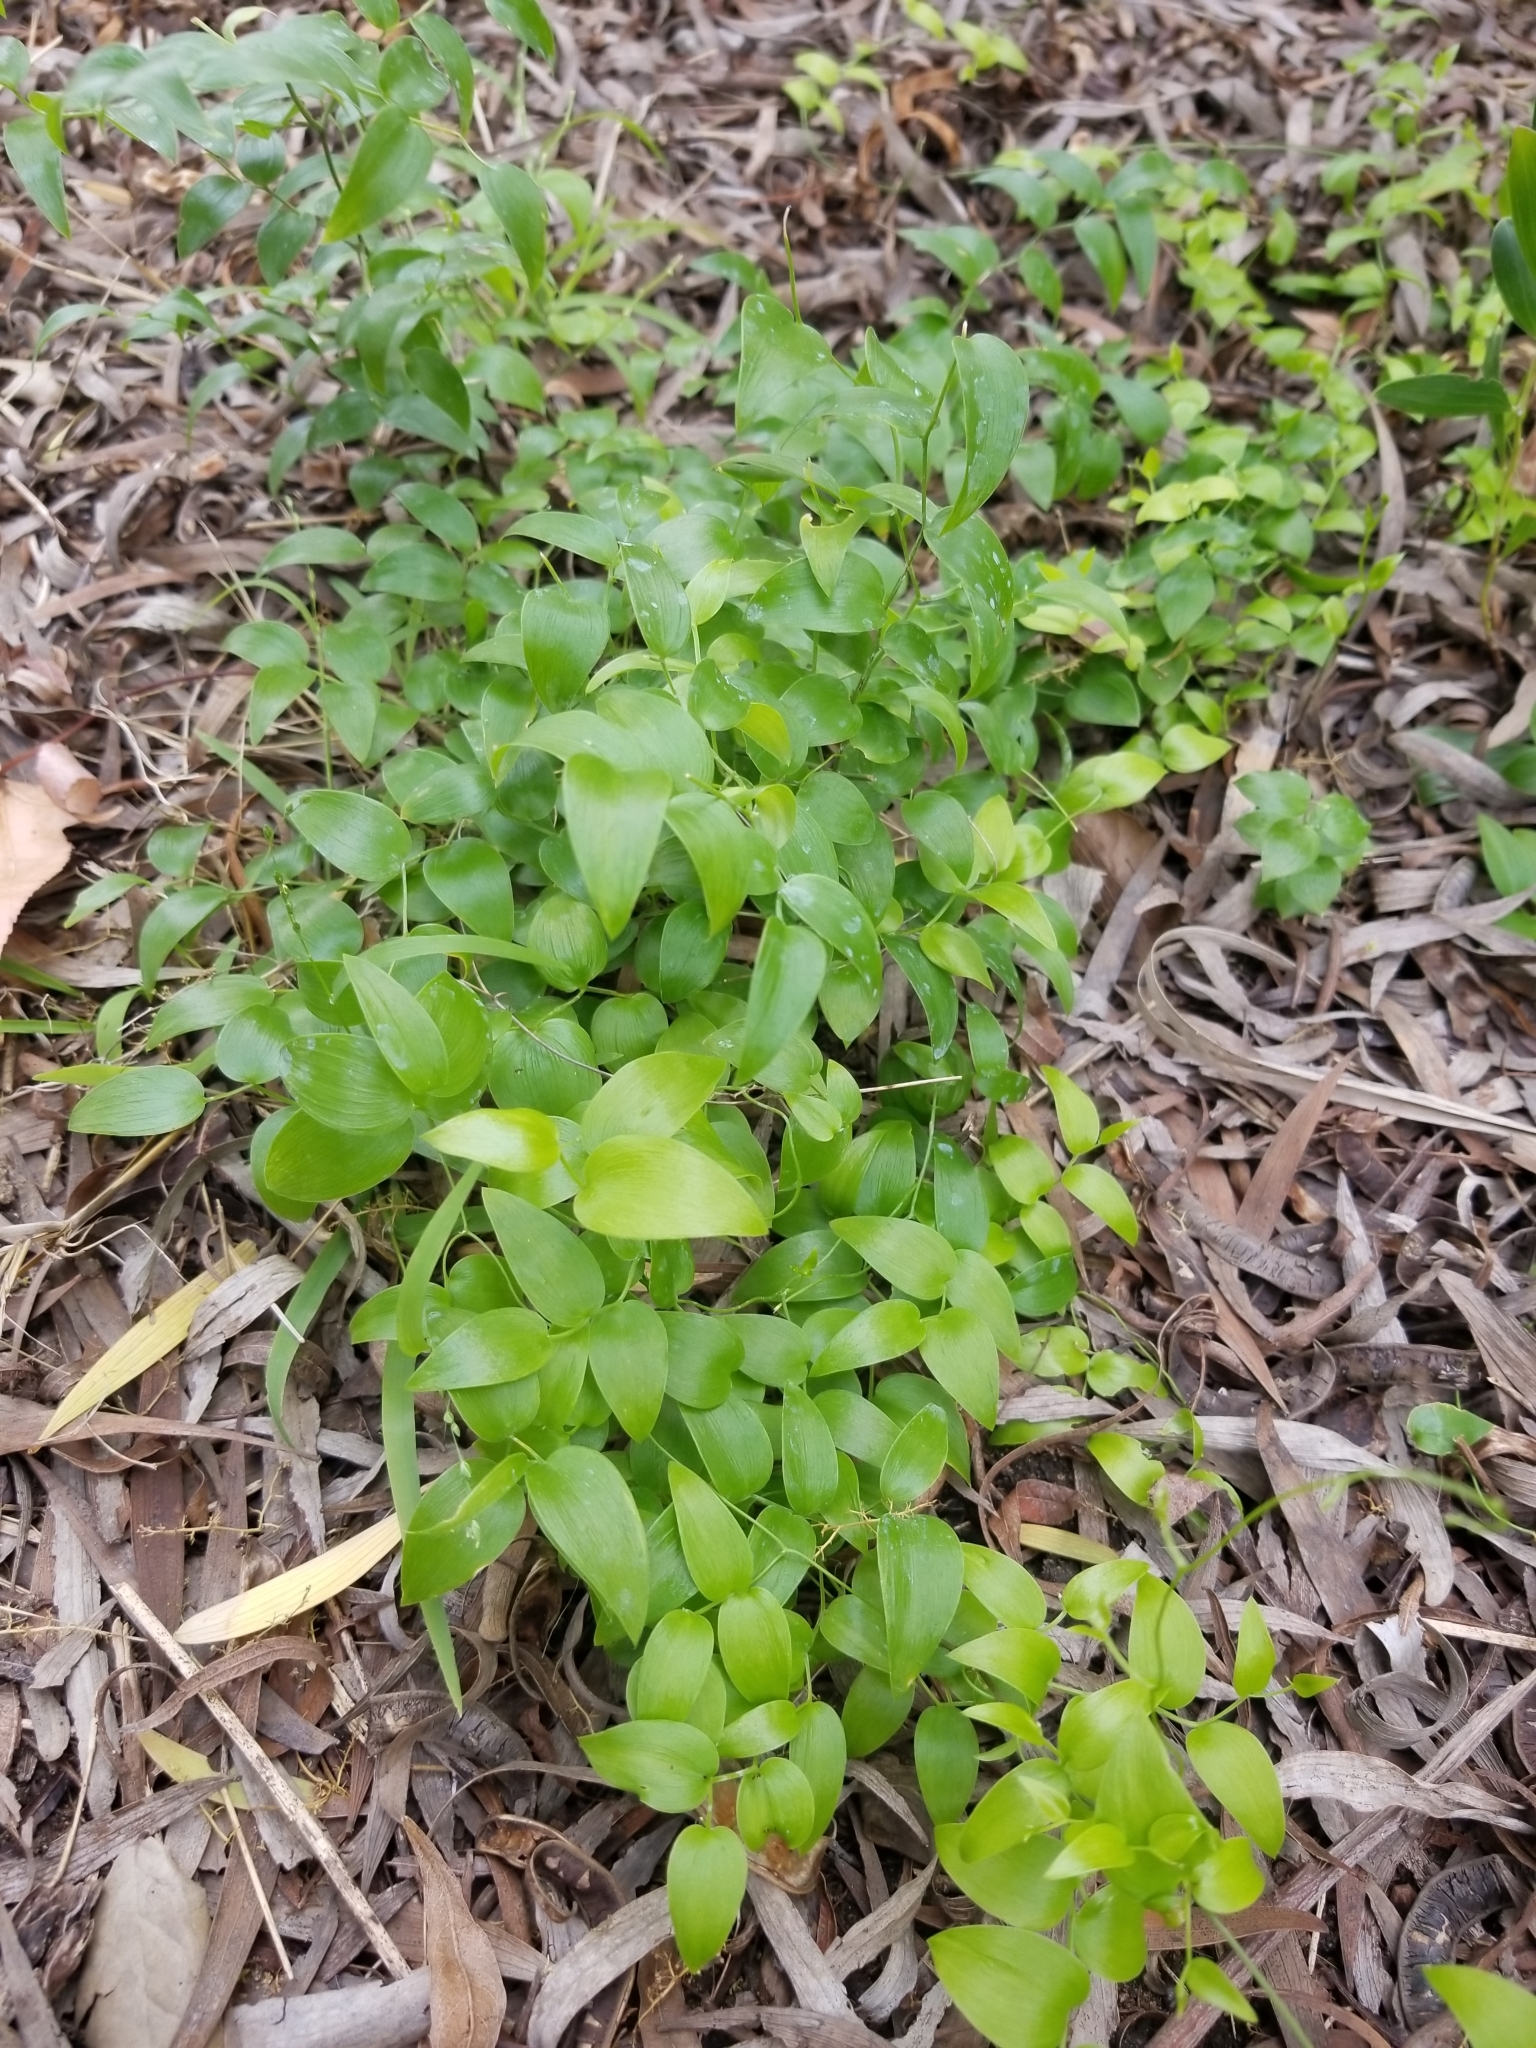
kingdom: Plantae
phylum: Tracheophyta
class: Liliopsida
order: Asparagales
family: Asparagaceae
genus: Asparagus
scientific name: Asparagus asparagoides
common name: African asparagus fern
